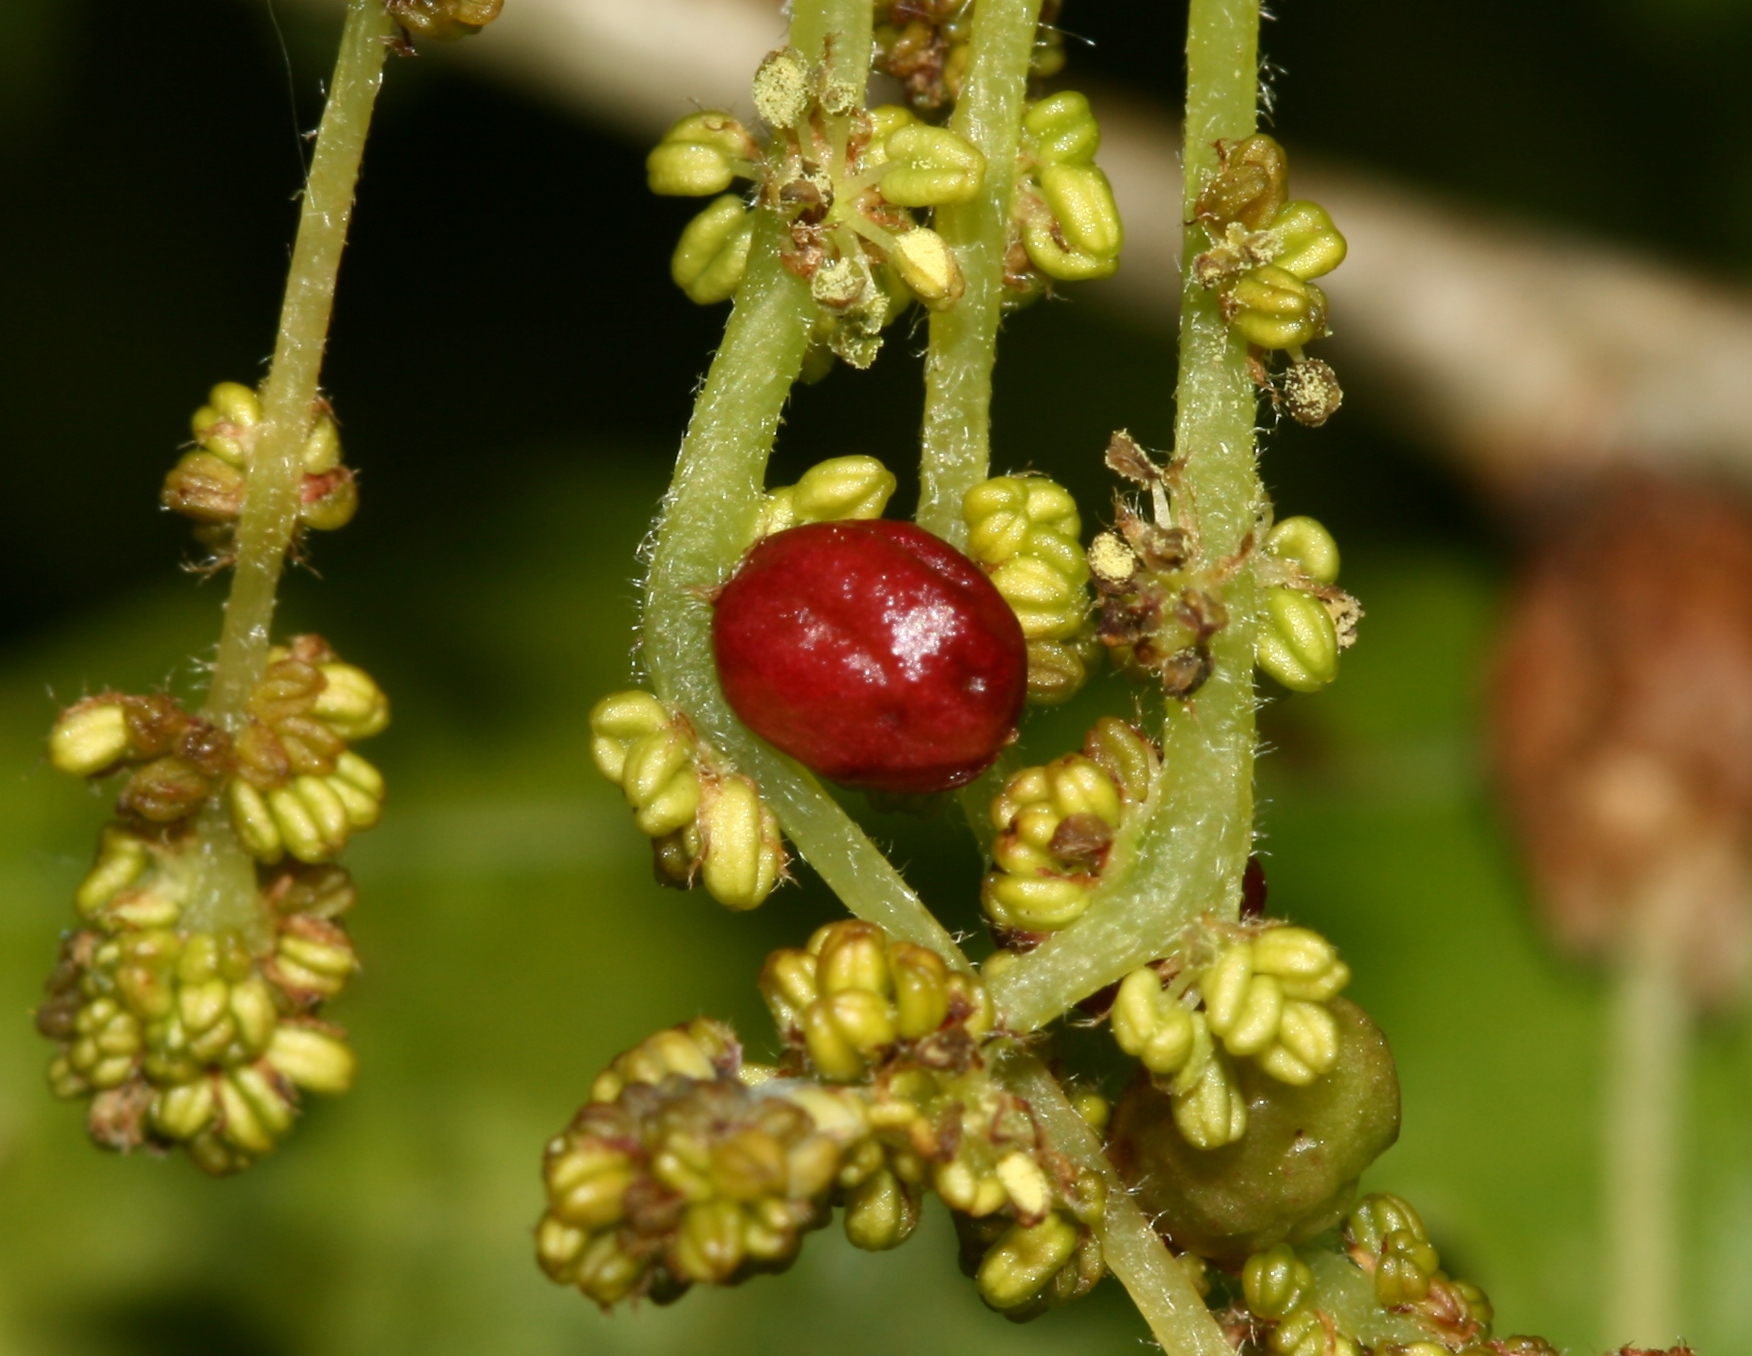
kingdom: Animalia
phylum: Arthropoda
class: Insecta
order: Hymenoptera
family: Cynipidae
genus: Andricus
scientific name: Andricus quadrilineatus
